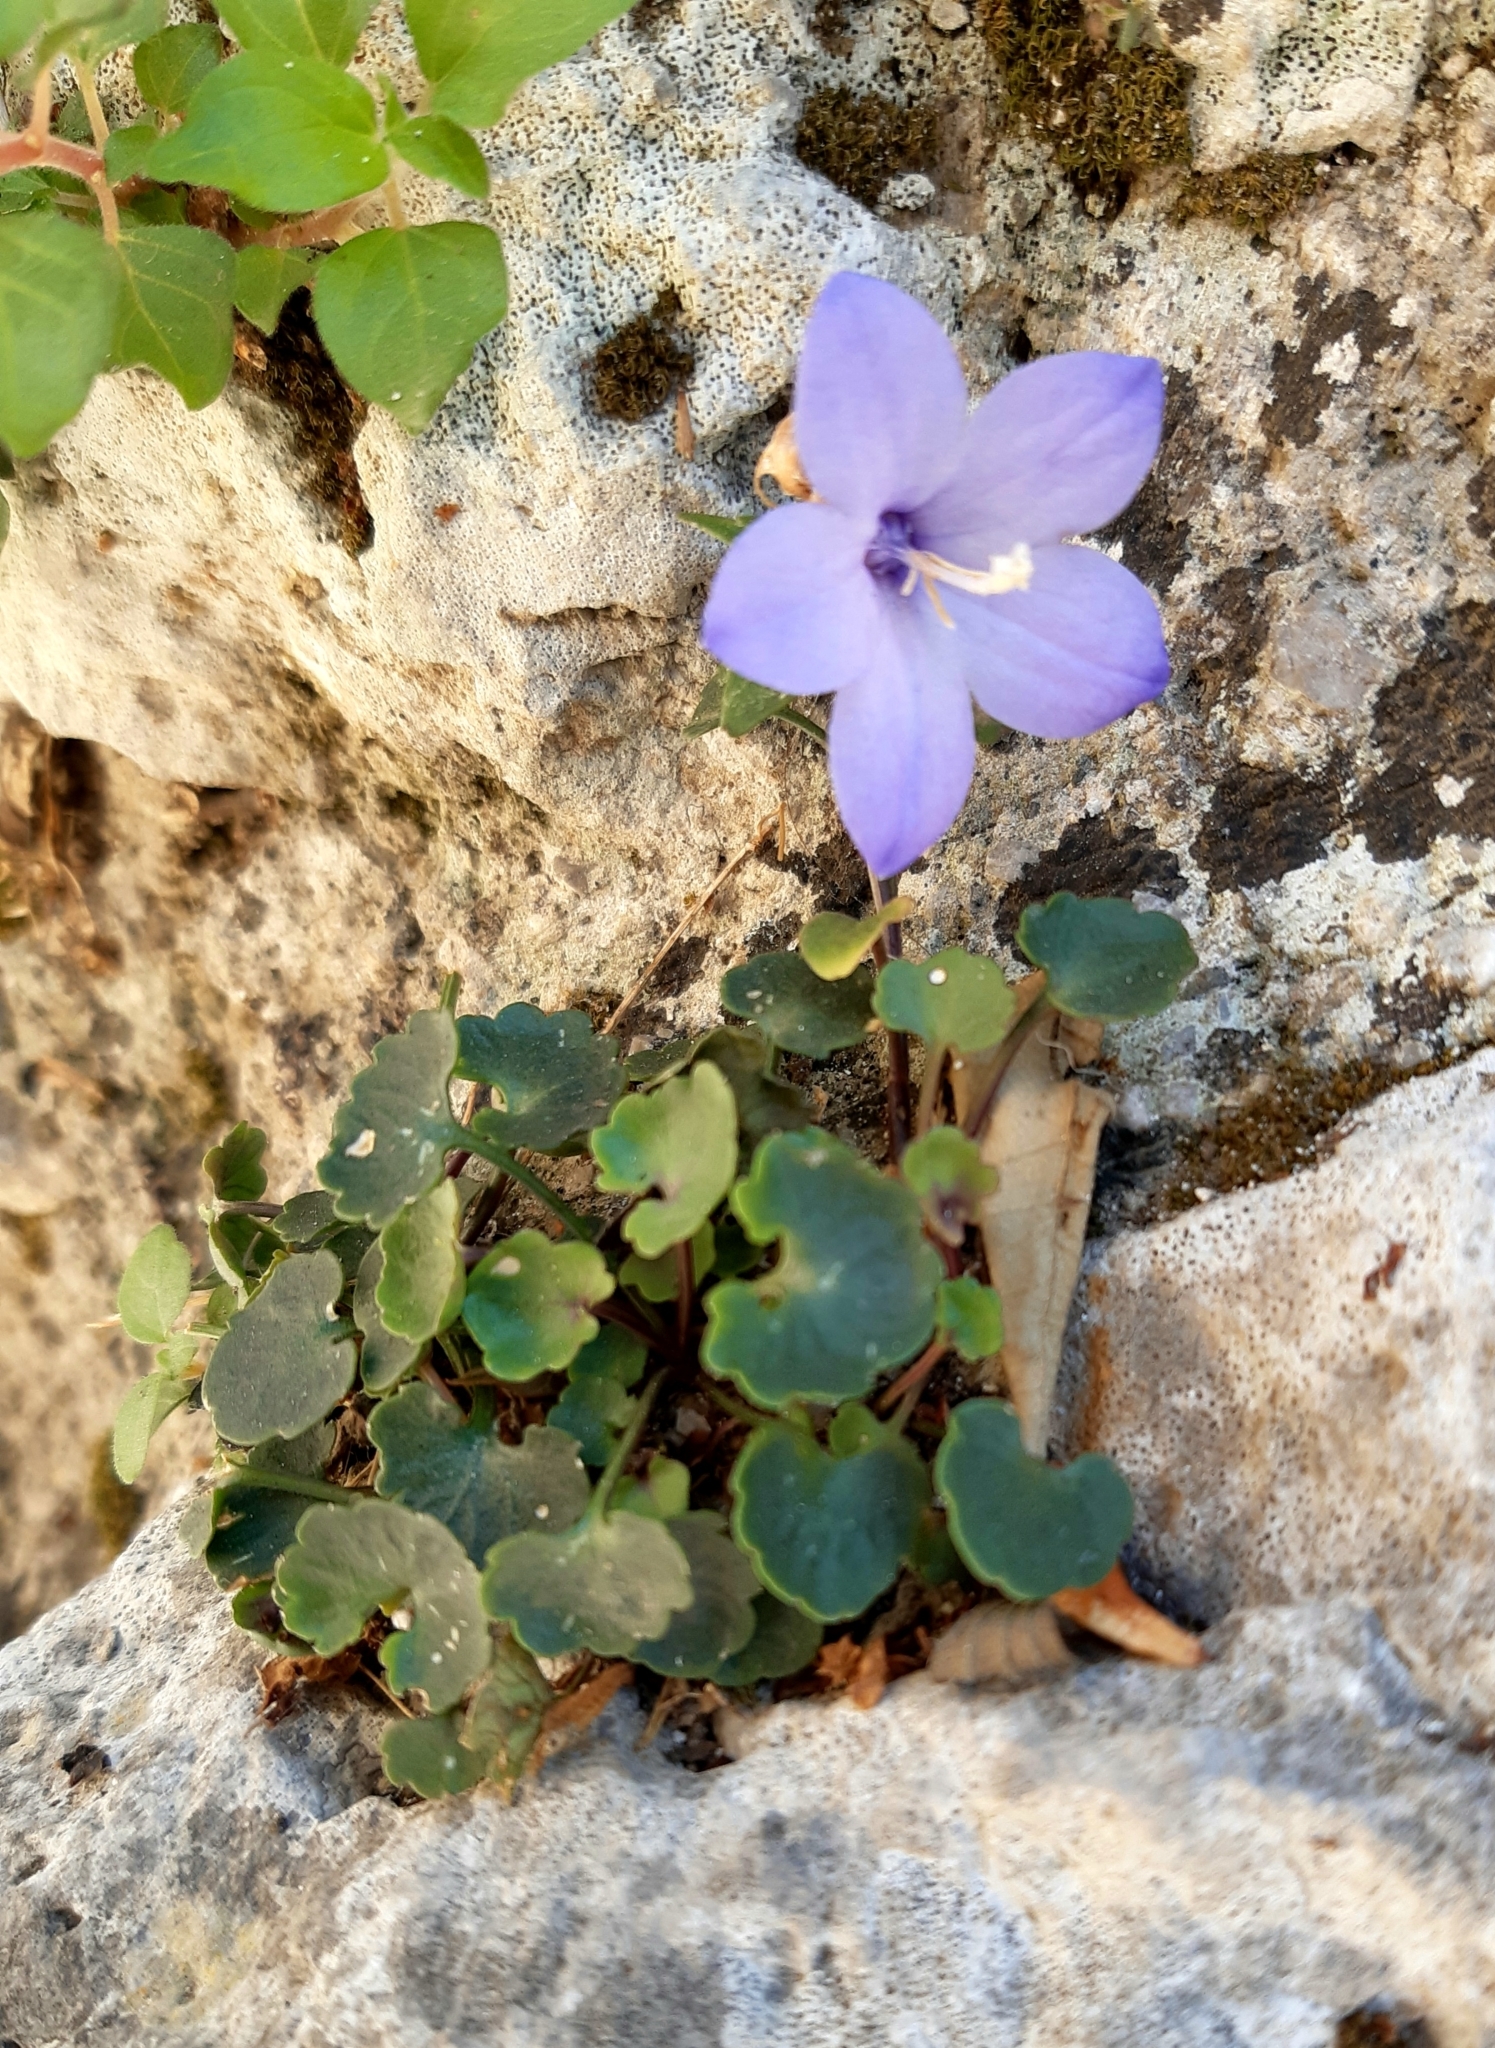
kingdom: Plantae
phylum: Tracheophyta
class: Magnoliopsida
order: Asterales
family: Campanulaceae
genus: Campanula
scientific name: Campanula fragilis
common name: Italian bellflower
